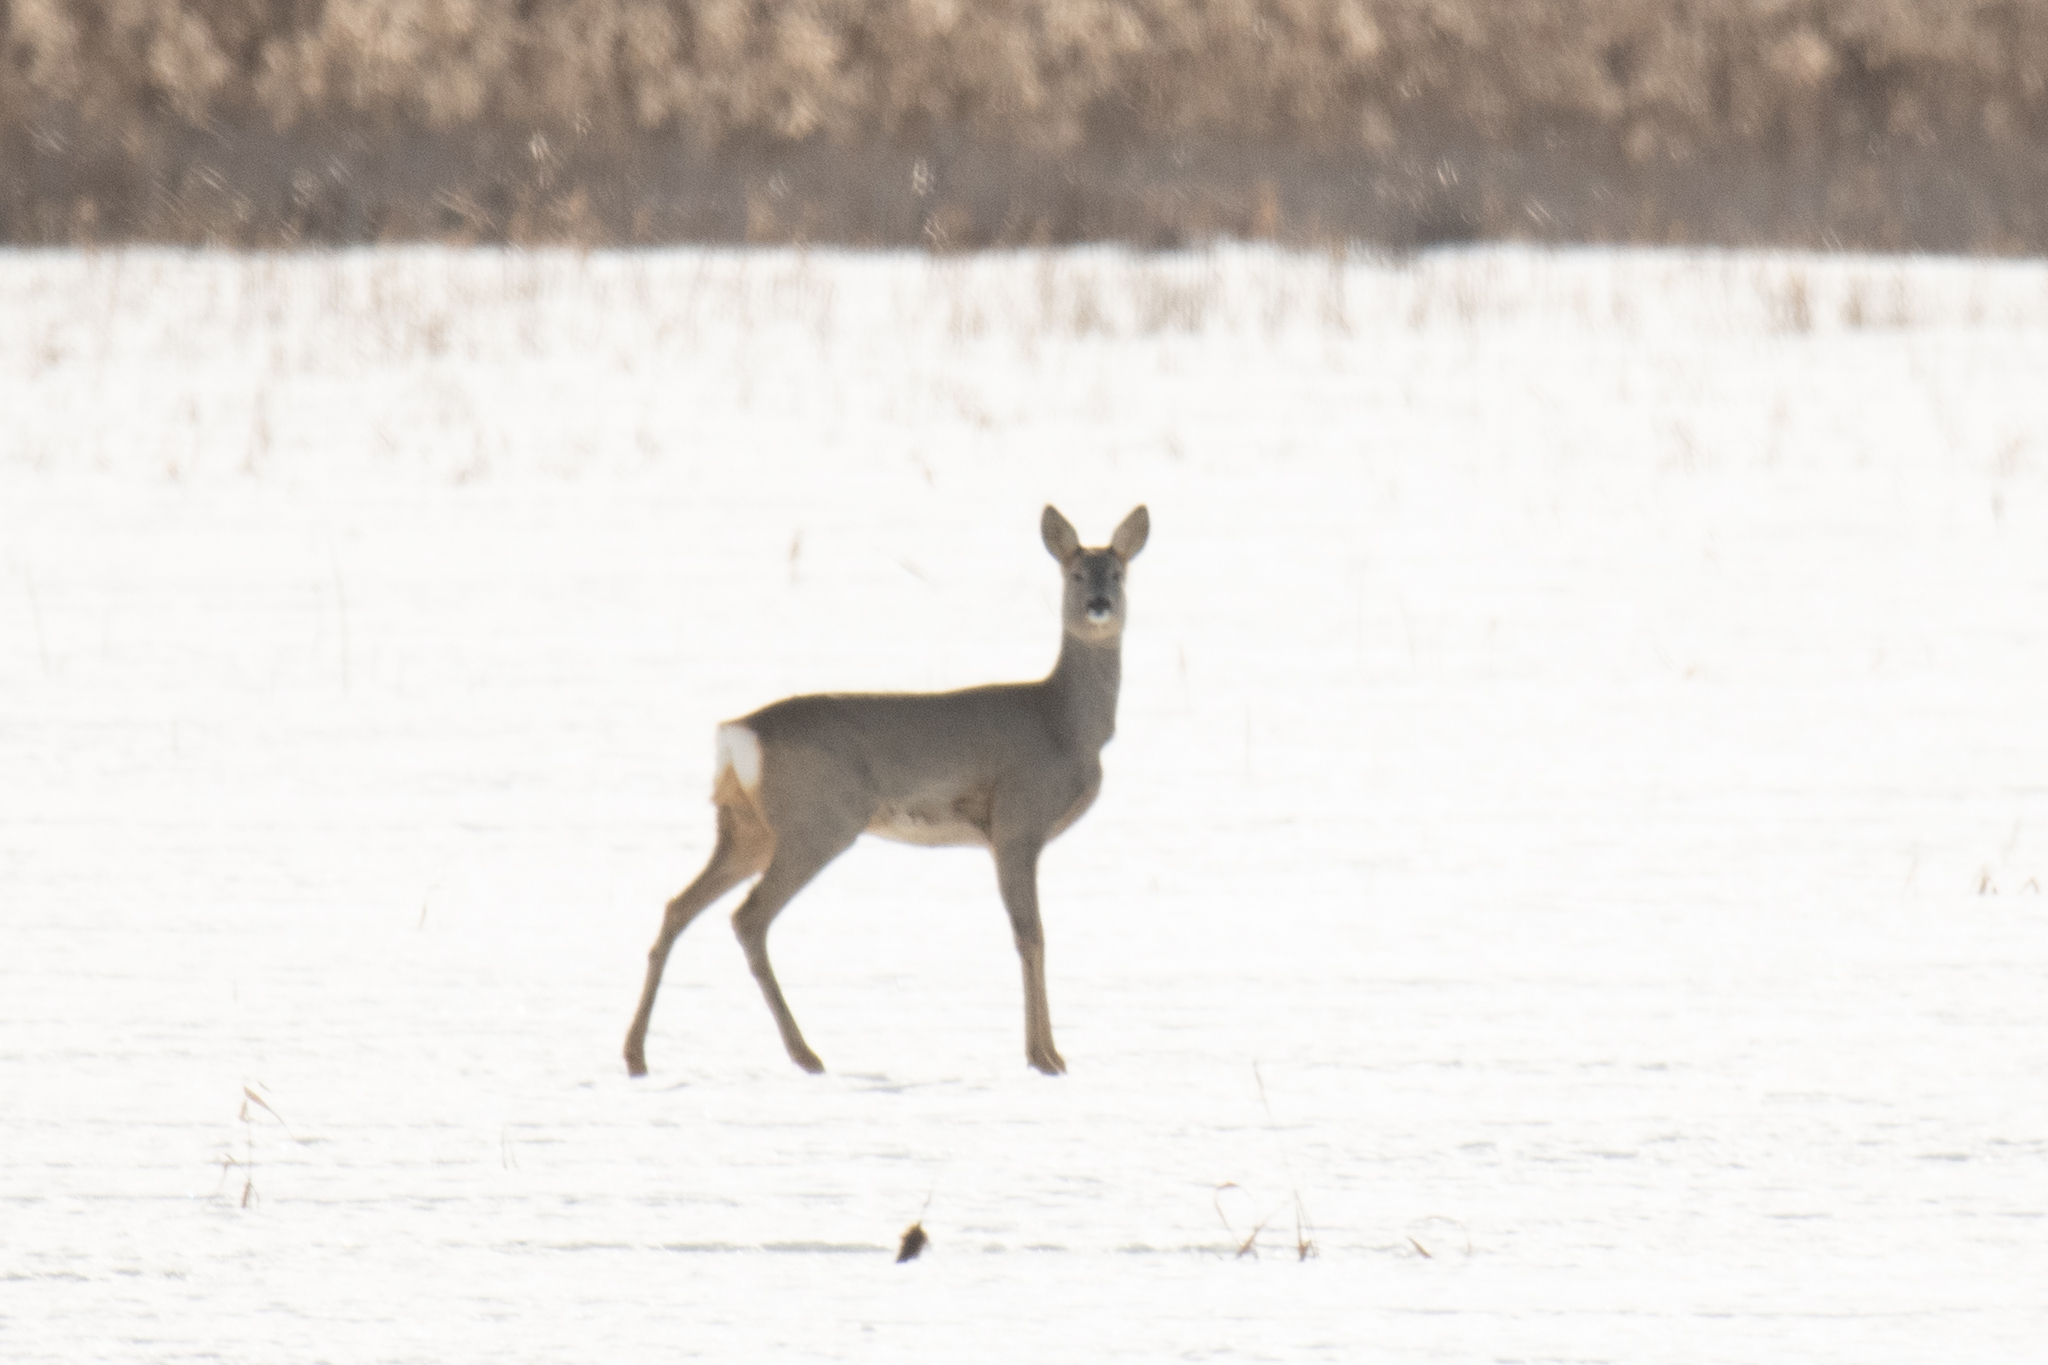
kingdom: Animalia
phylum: Chordata
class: Mammalia
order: Artiodactyla
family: Cervidae
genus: Capreolus
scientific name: Capreolus capreolus
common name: Western roe deer
